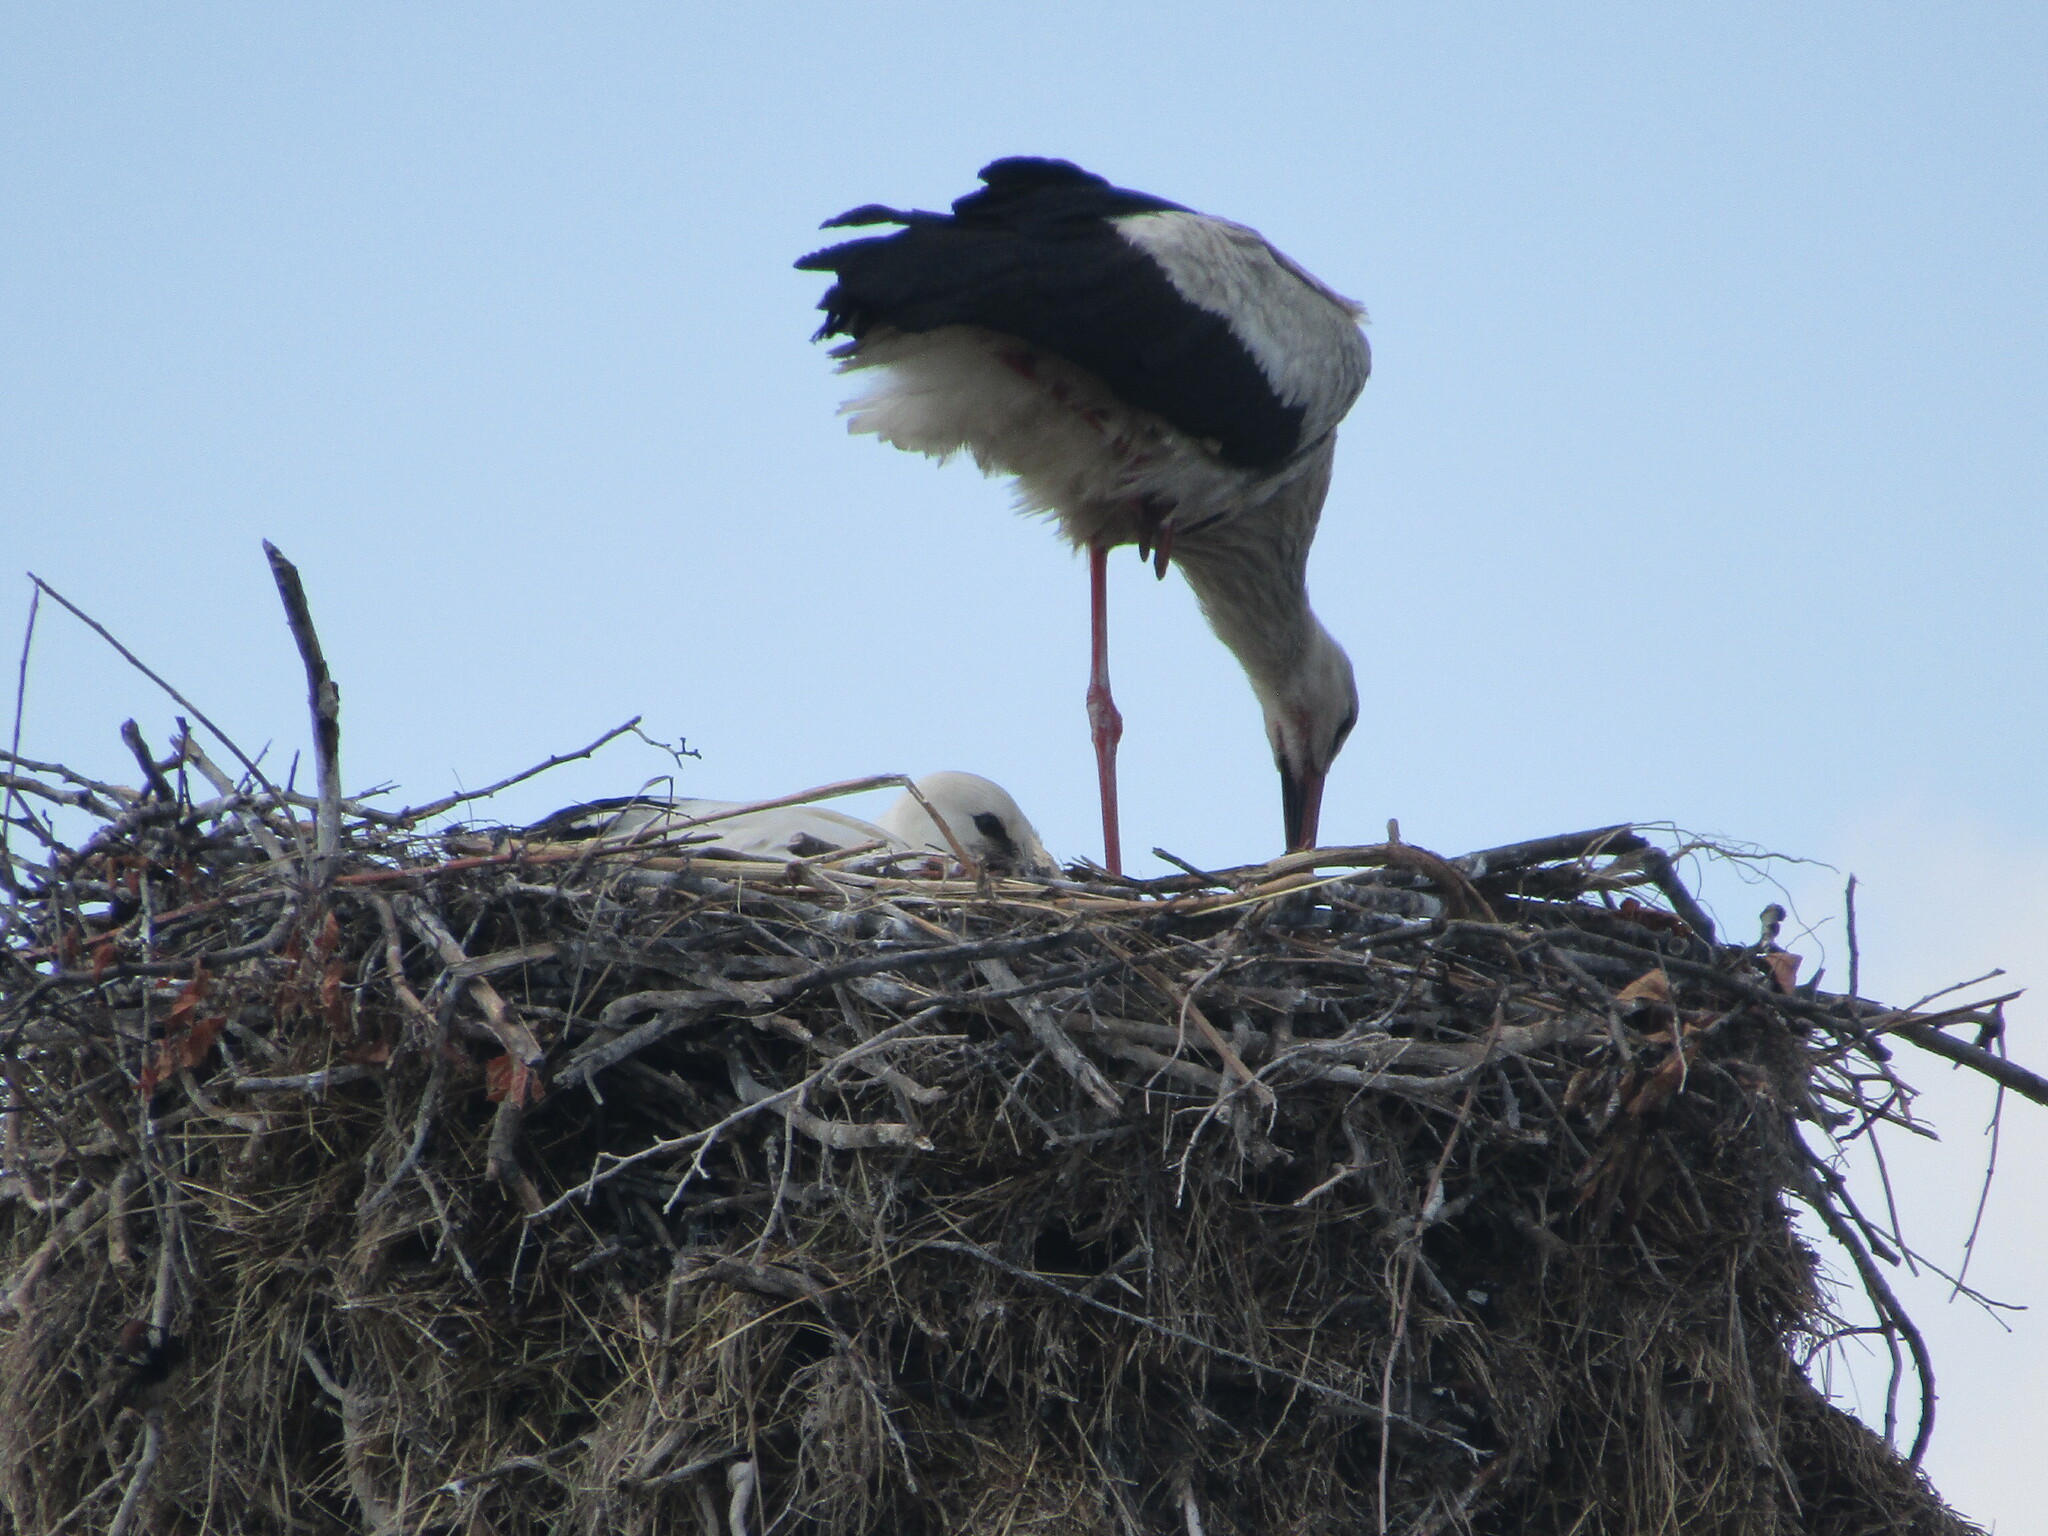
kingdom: Animalia
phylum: Chordata
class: Aves
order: Ciconiiformes
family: Ciconiidae
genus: Ciconia
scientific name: Ciconia ciconia
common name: White stork
